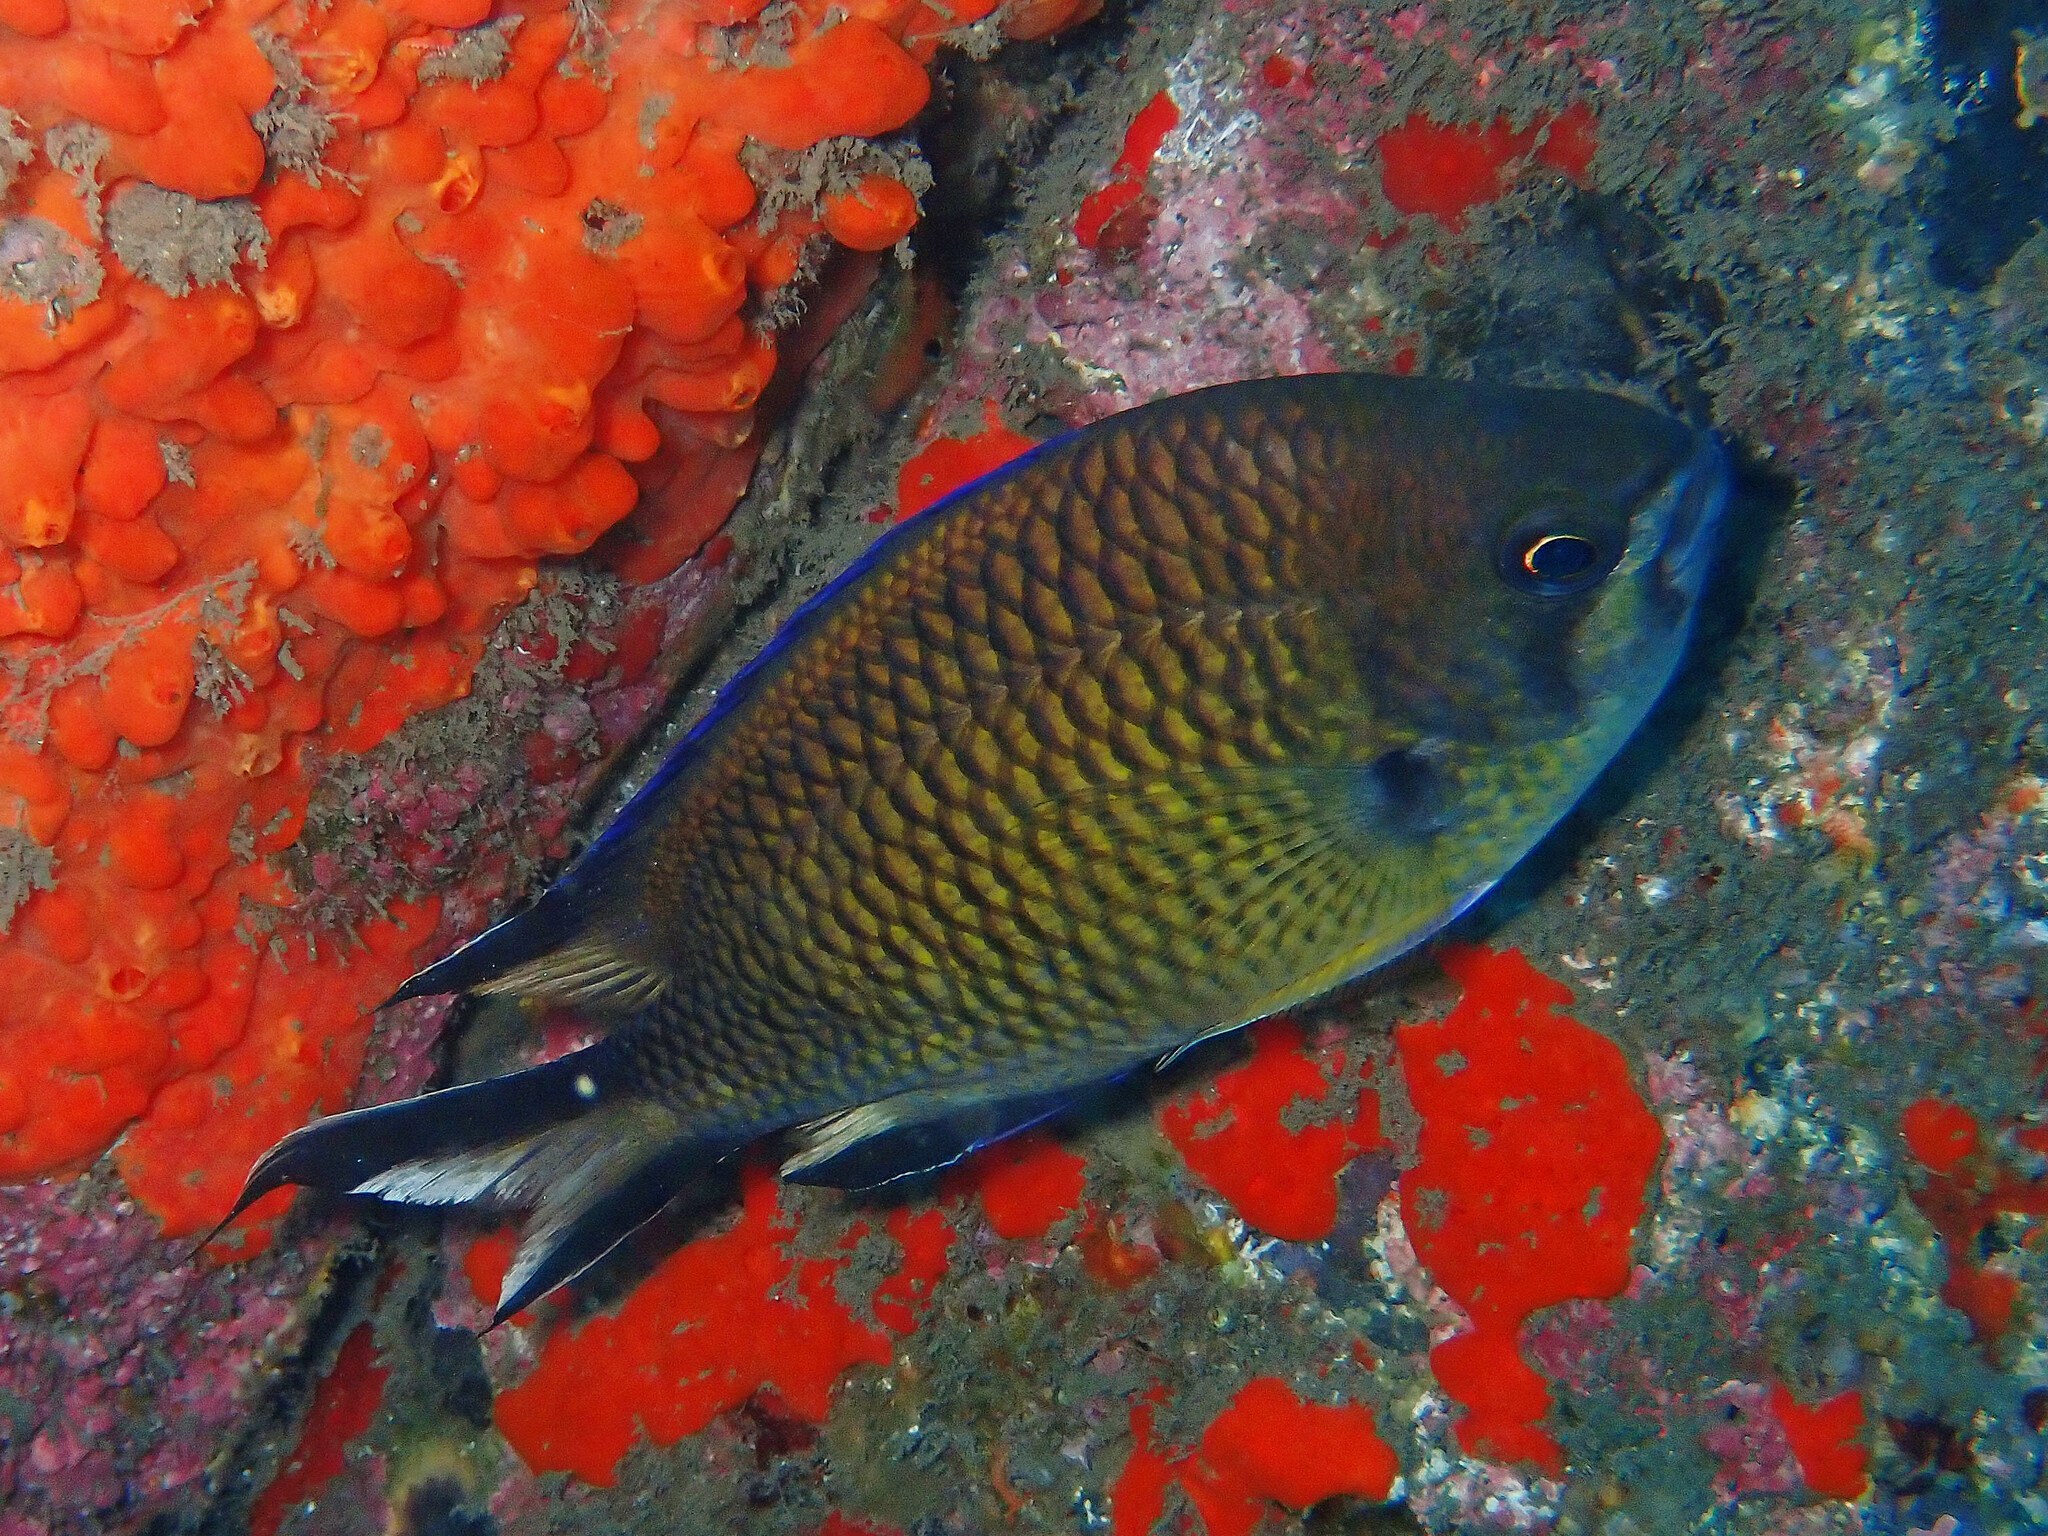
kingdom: Animalia
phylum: Chordata
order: Perciformes
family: Pomacentridae
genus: Chromis
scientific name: Chromis limbata
